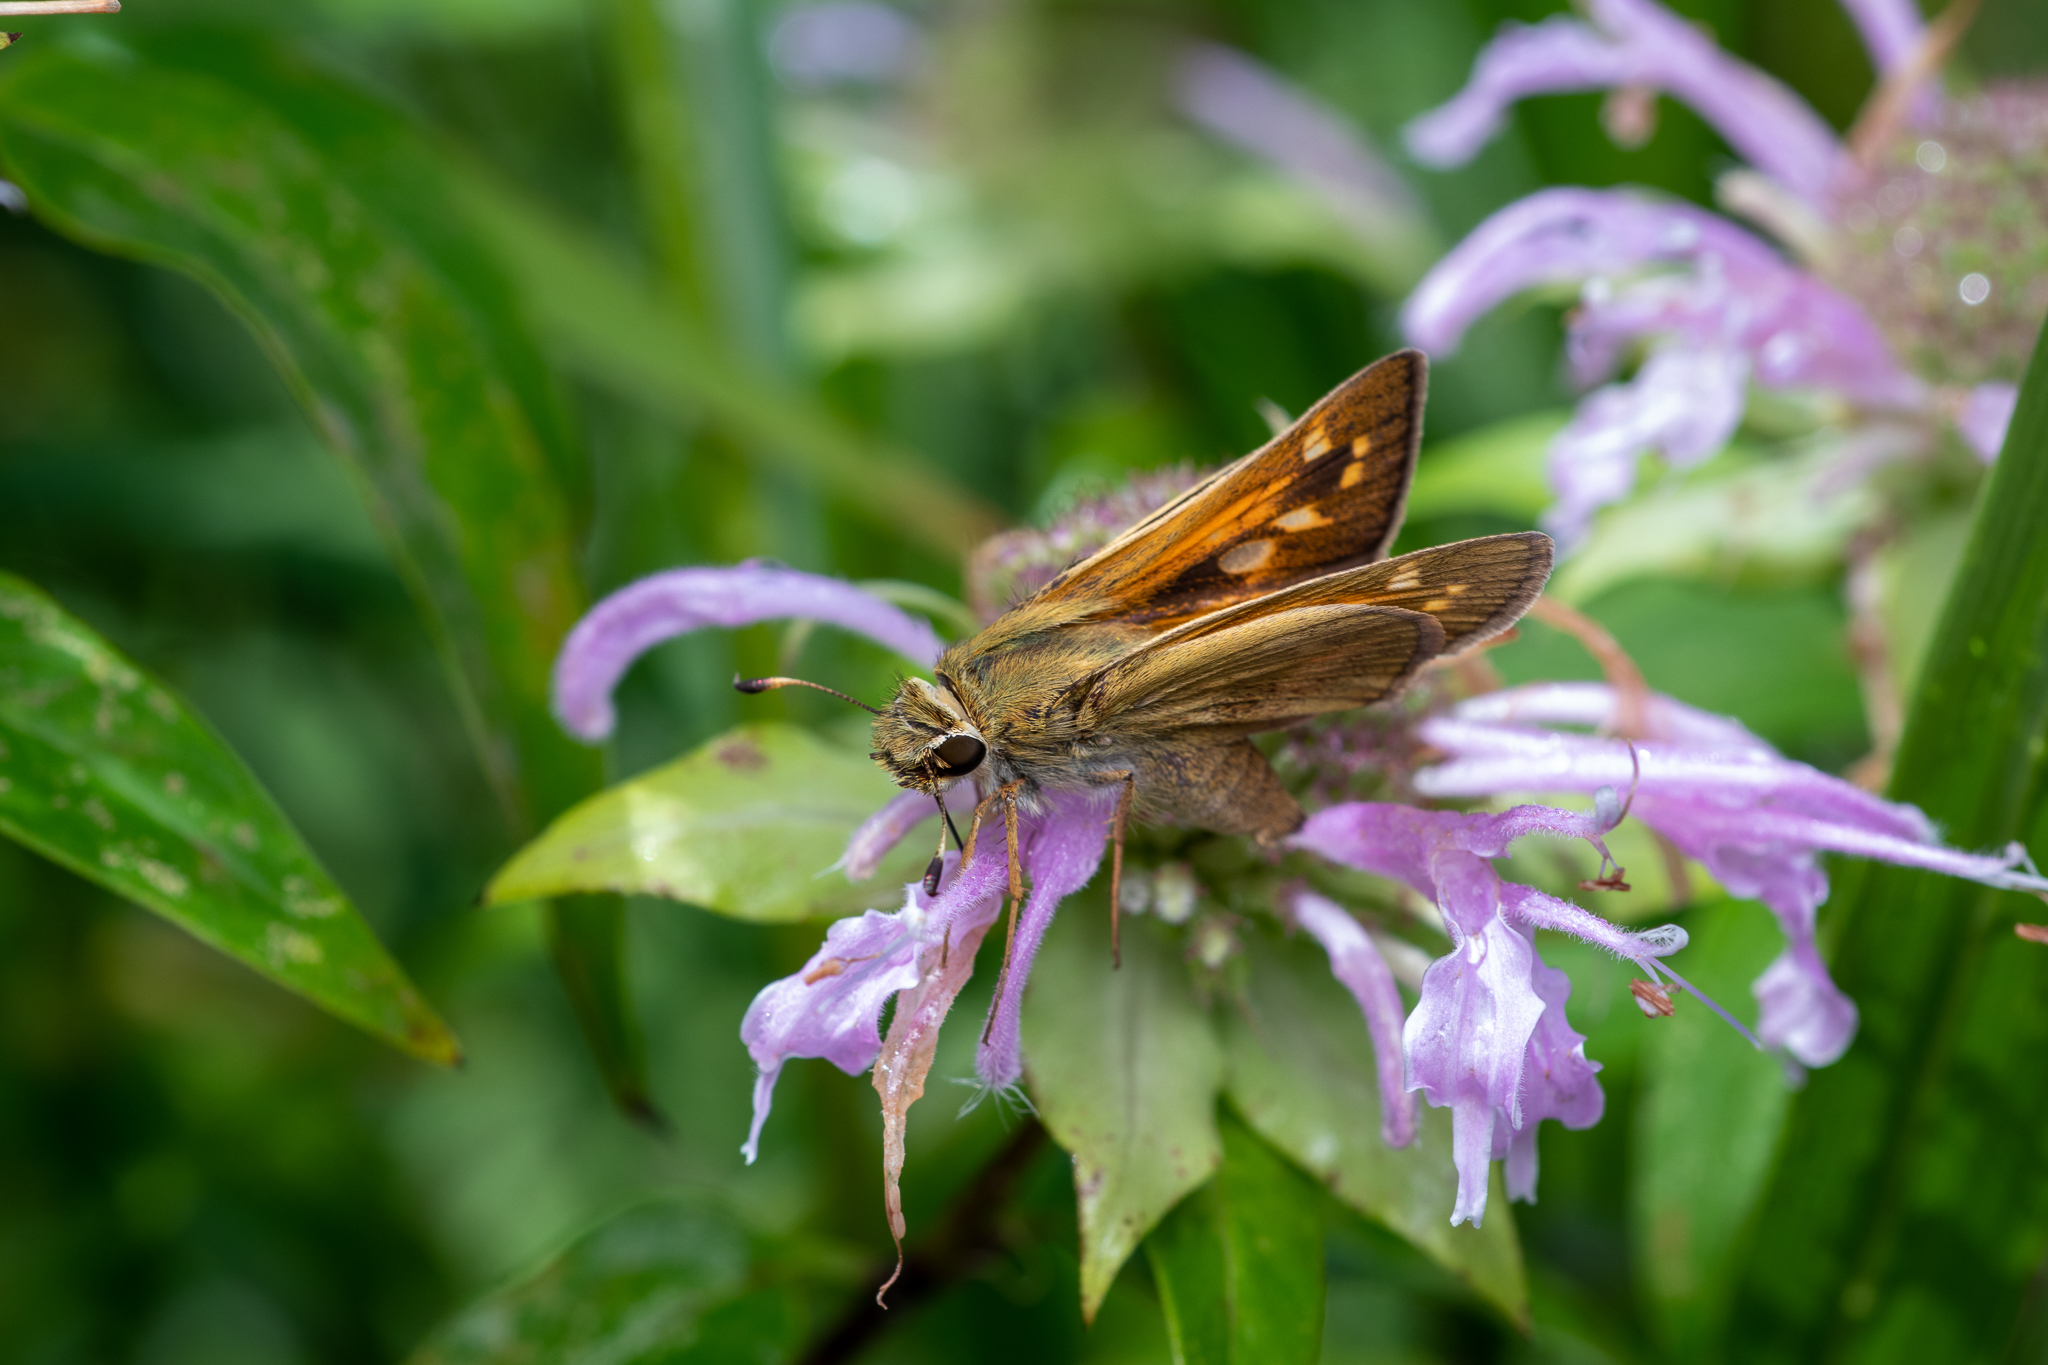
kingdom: Animalia
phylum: Arthropoda
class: Insecta
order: Lepidoptera
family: Hesperiidae
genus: Atalopedes
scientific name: Atalopedes
